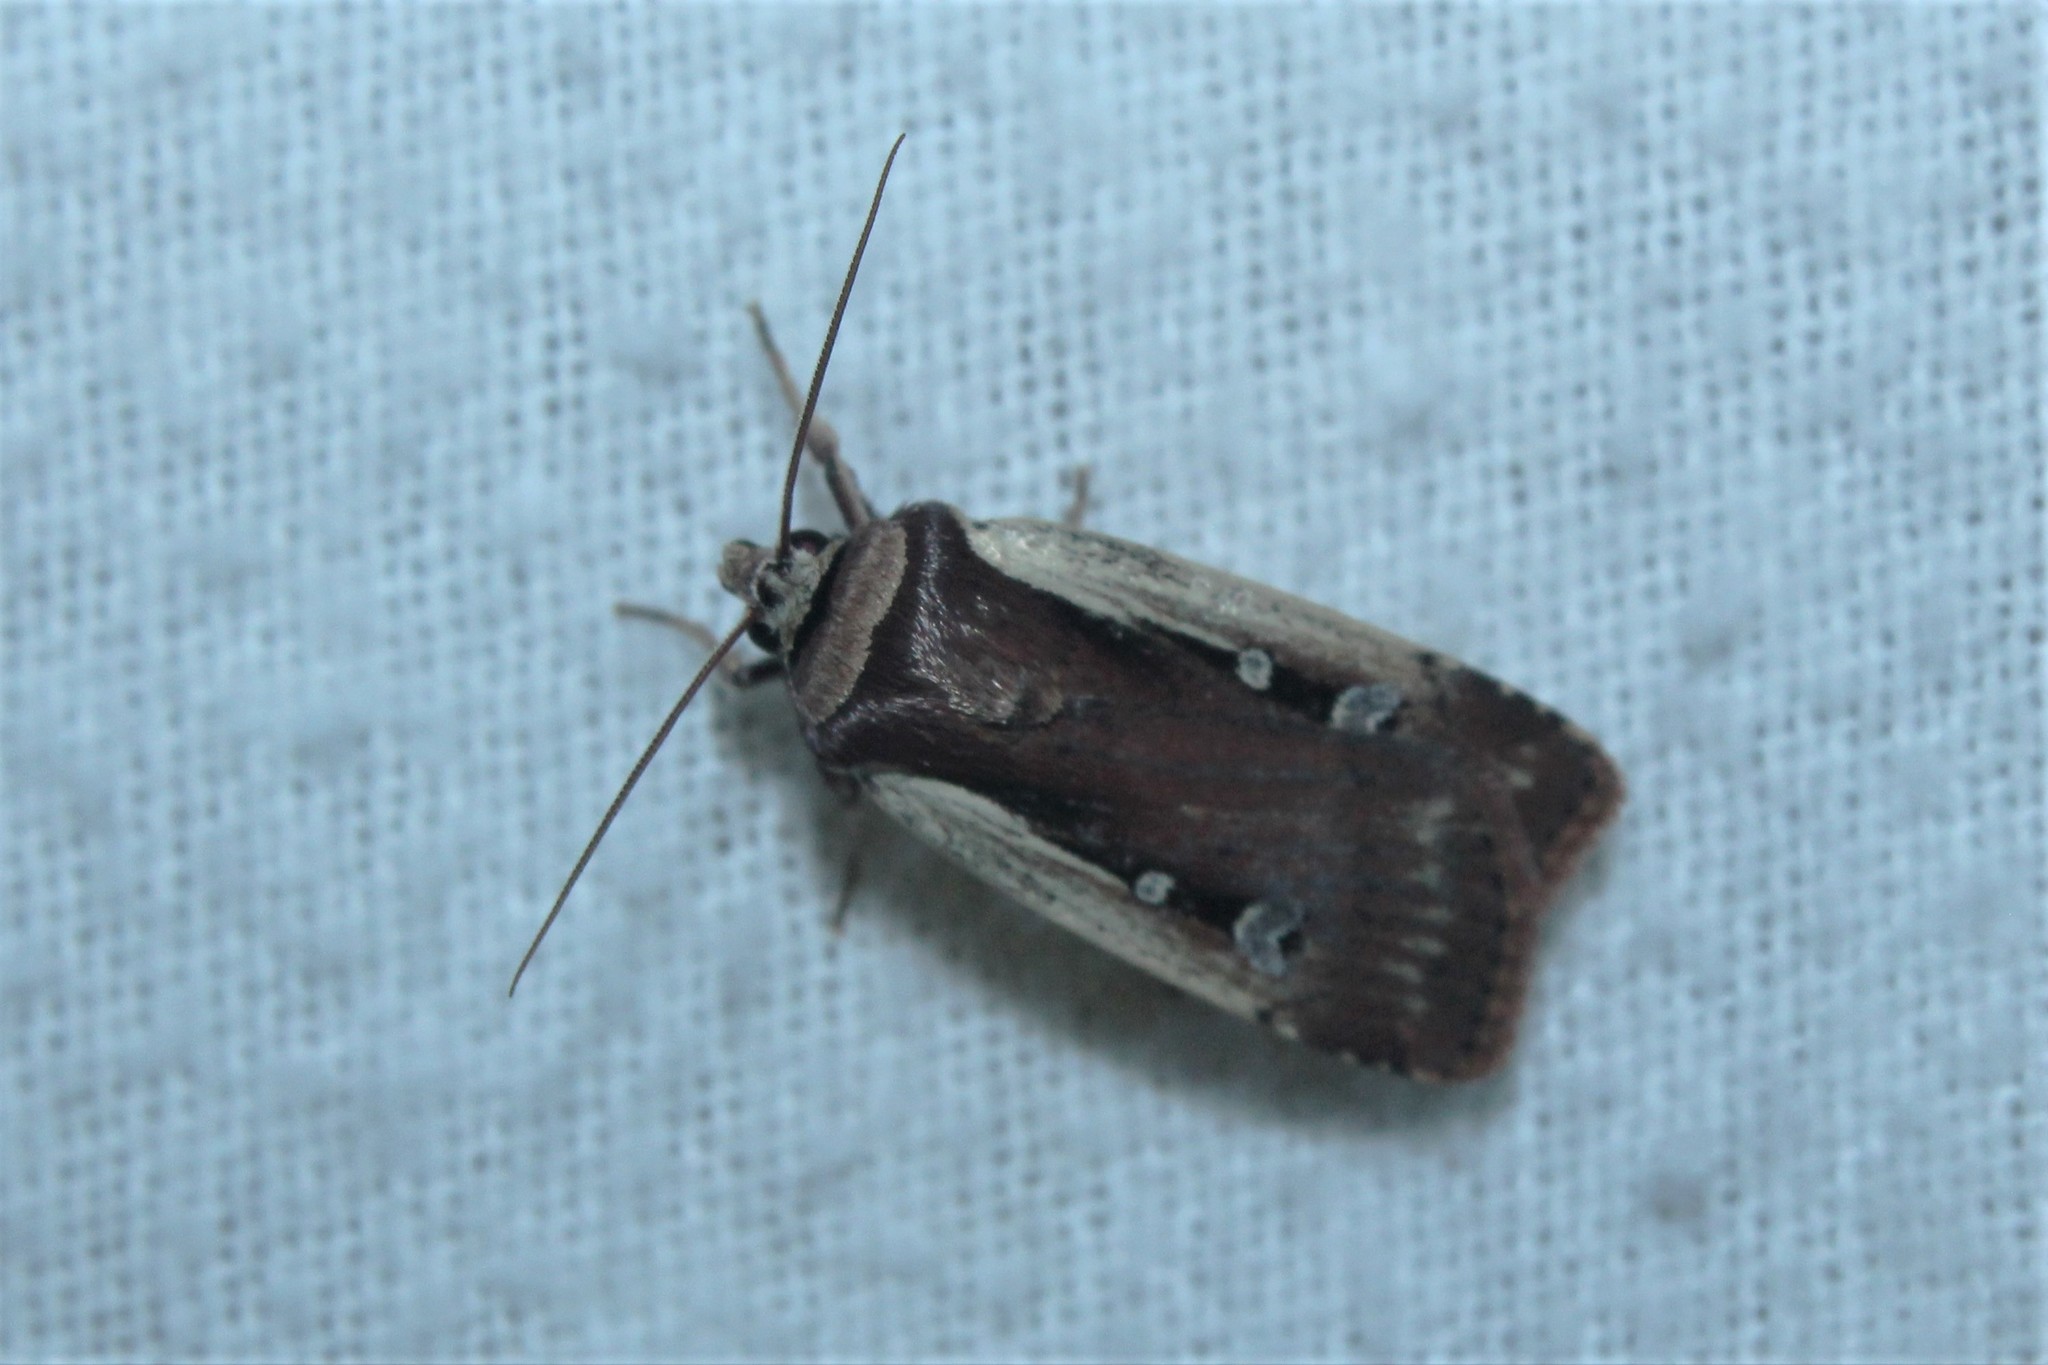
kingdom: Animalia
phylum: Arthropoda
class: Insecta
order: Lepidoptera
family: Noctuidae
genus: Ochropleura
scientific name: Ochropleura implecta
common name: Flame-shouldered dart
